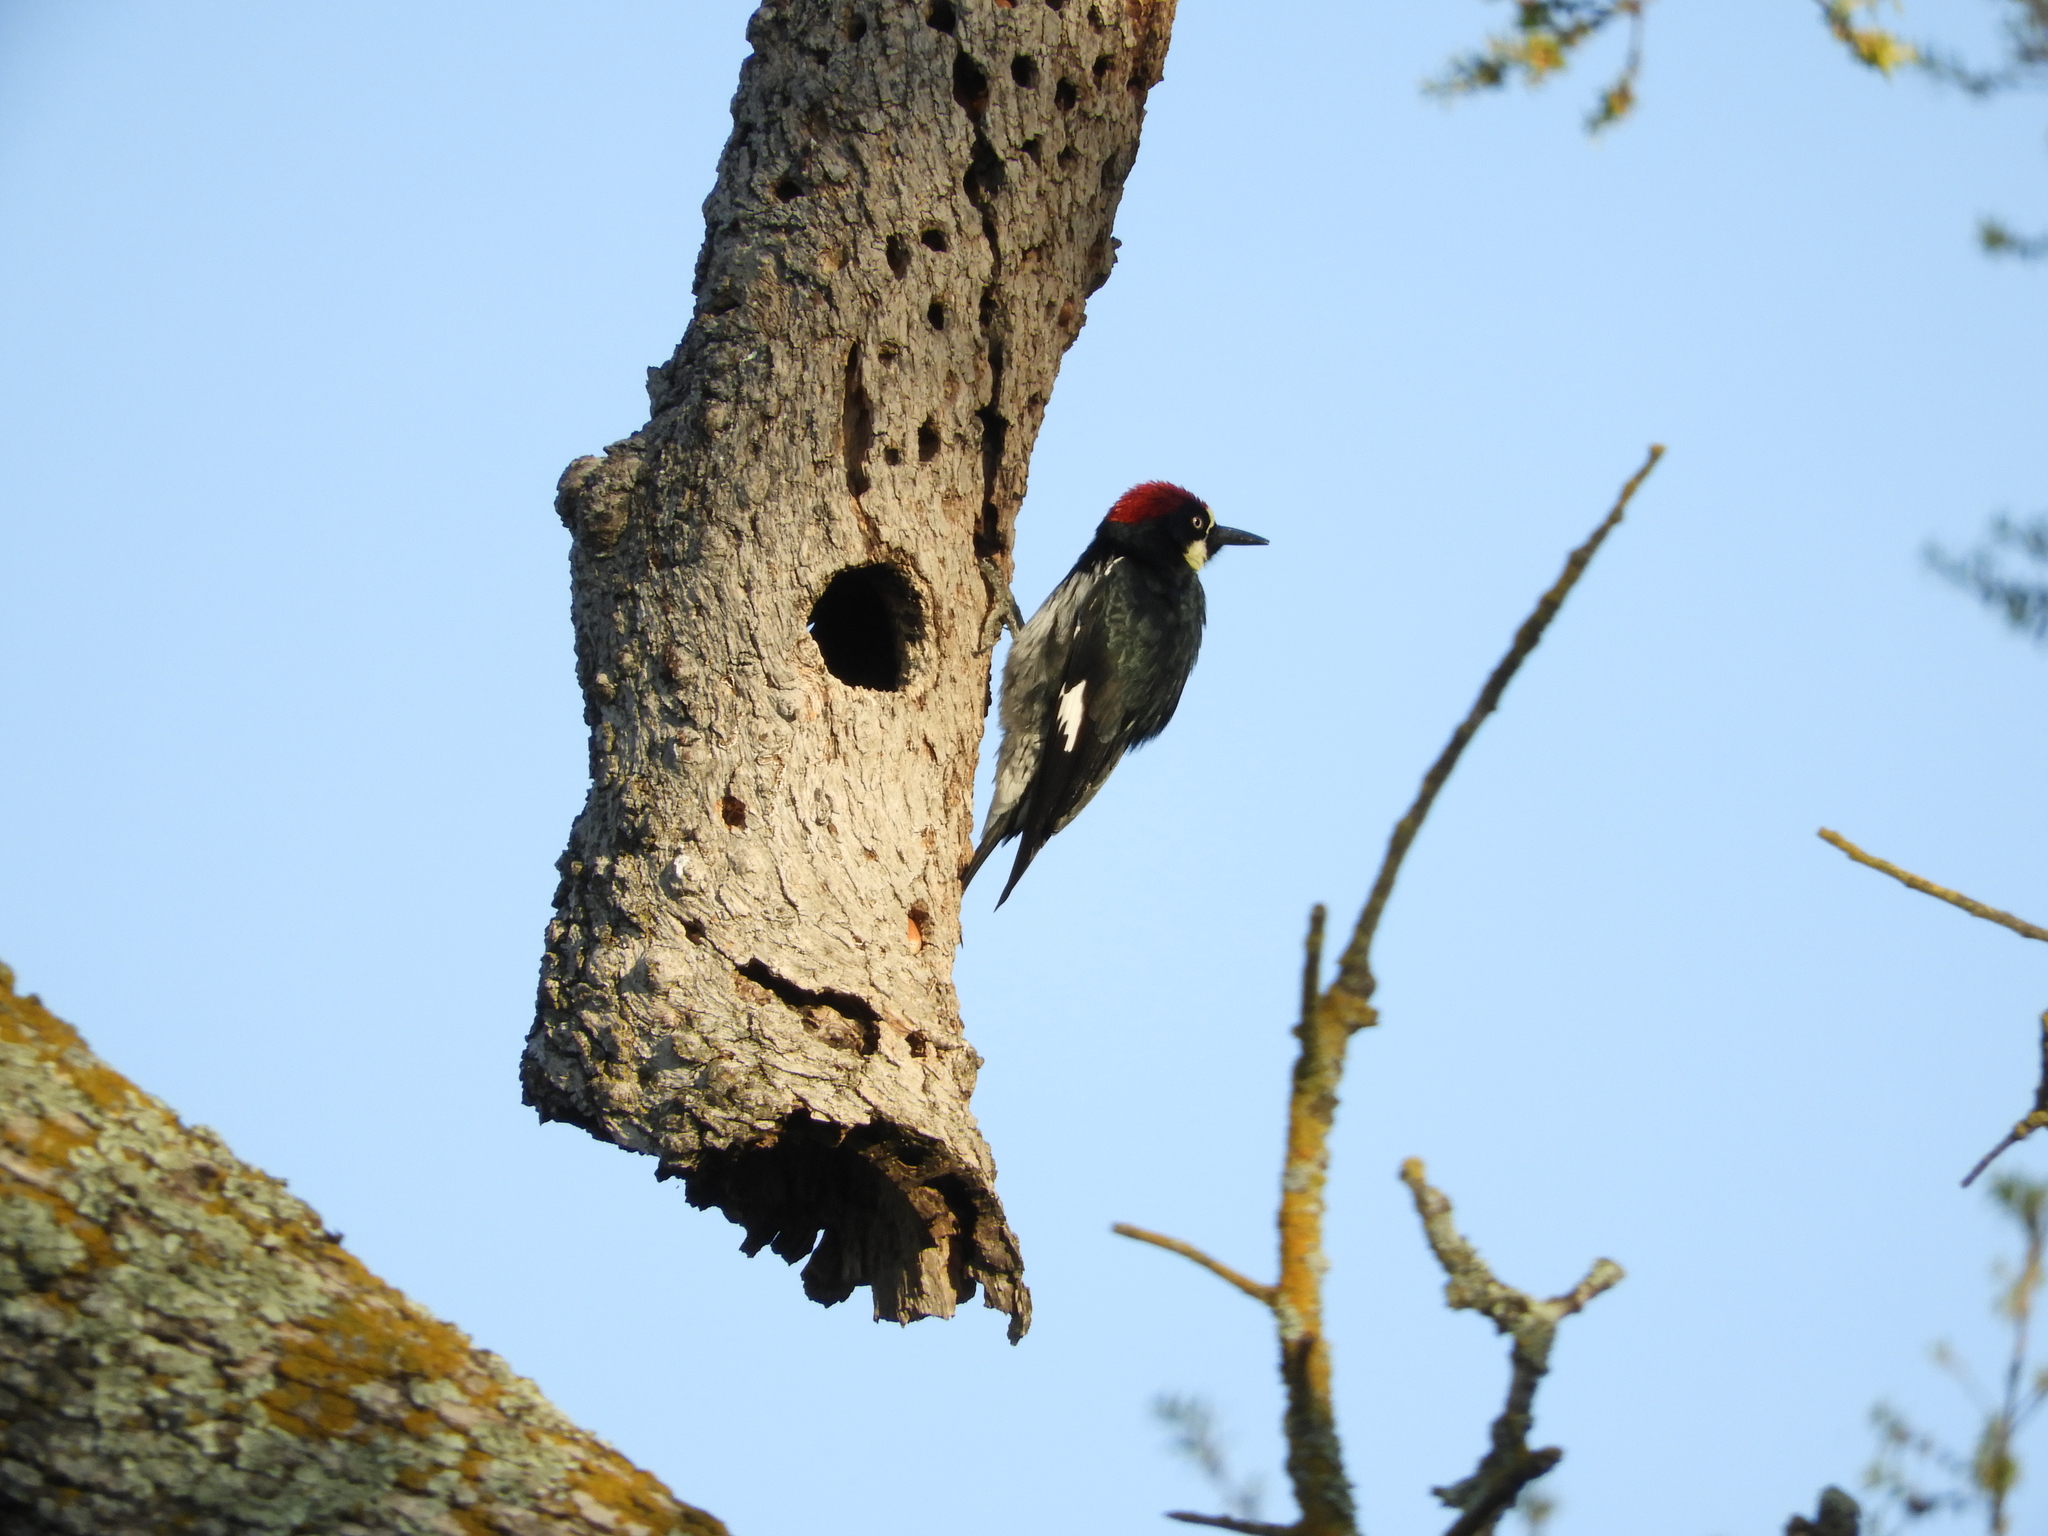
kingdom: Animalia
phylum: Chordata
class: Aves
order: Piciformes
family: Picidae
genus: Melanerpes
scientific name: Melanerpes formicivorus
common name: Acorn woodpecker
